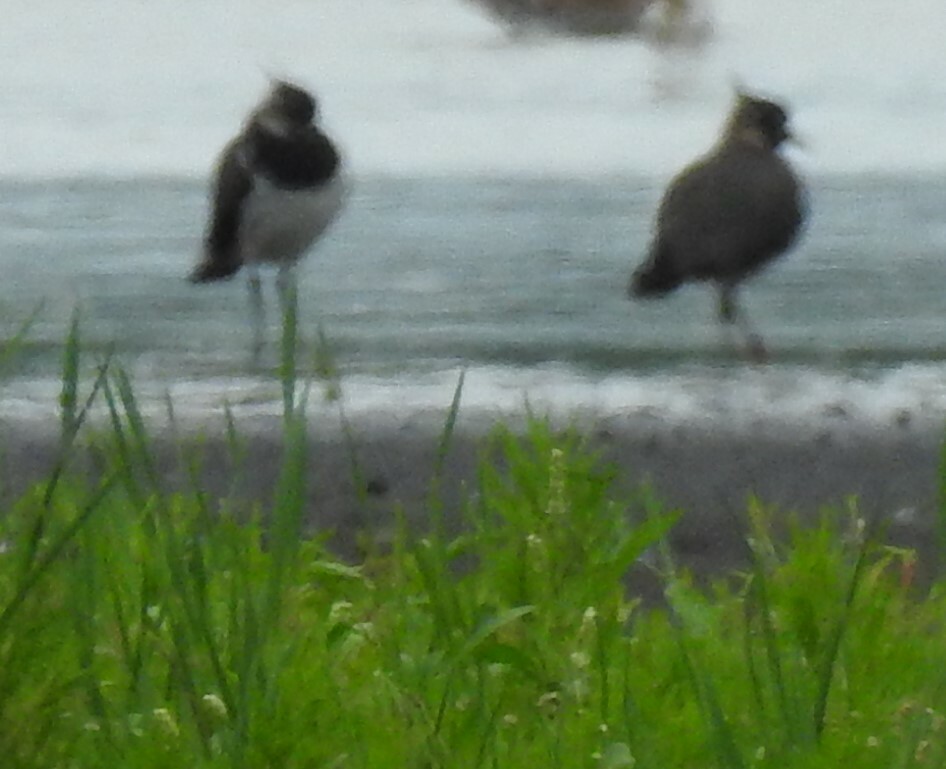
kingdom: Animalia
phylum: Chordata
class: Aves
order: Charadriiformes
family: Charadriidae
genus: Vanellus
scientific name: Vanellus vanellus
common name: Northern lapwing
